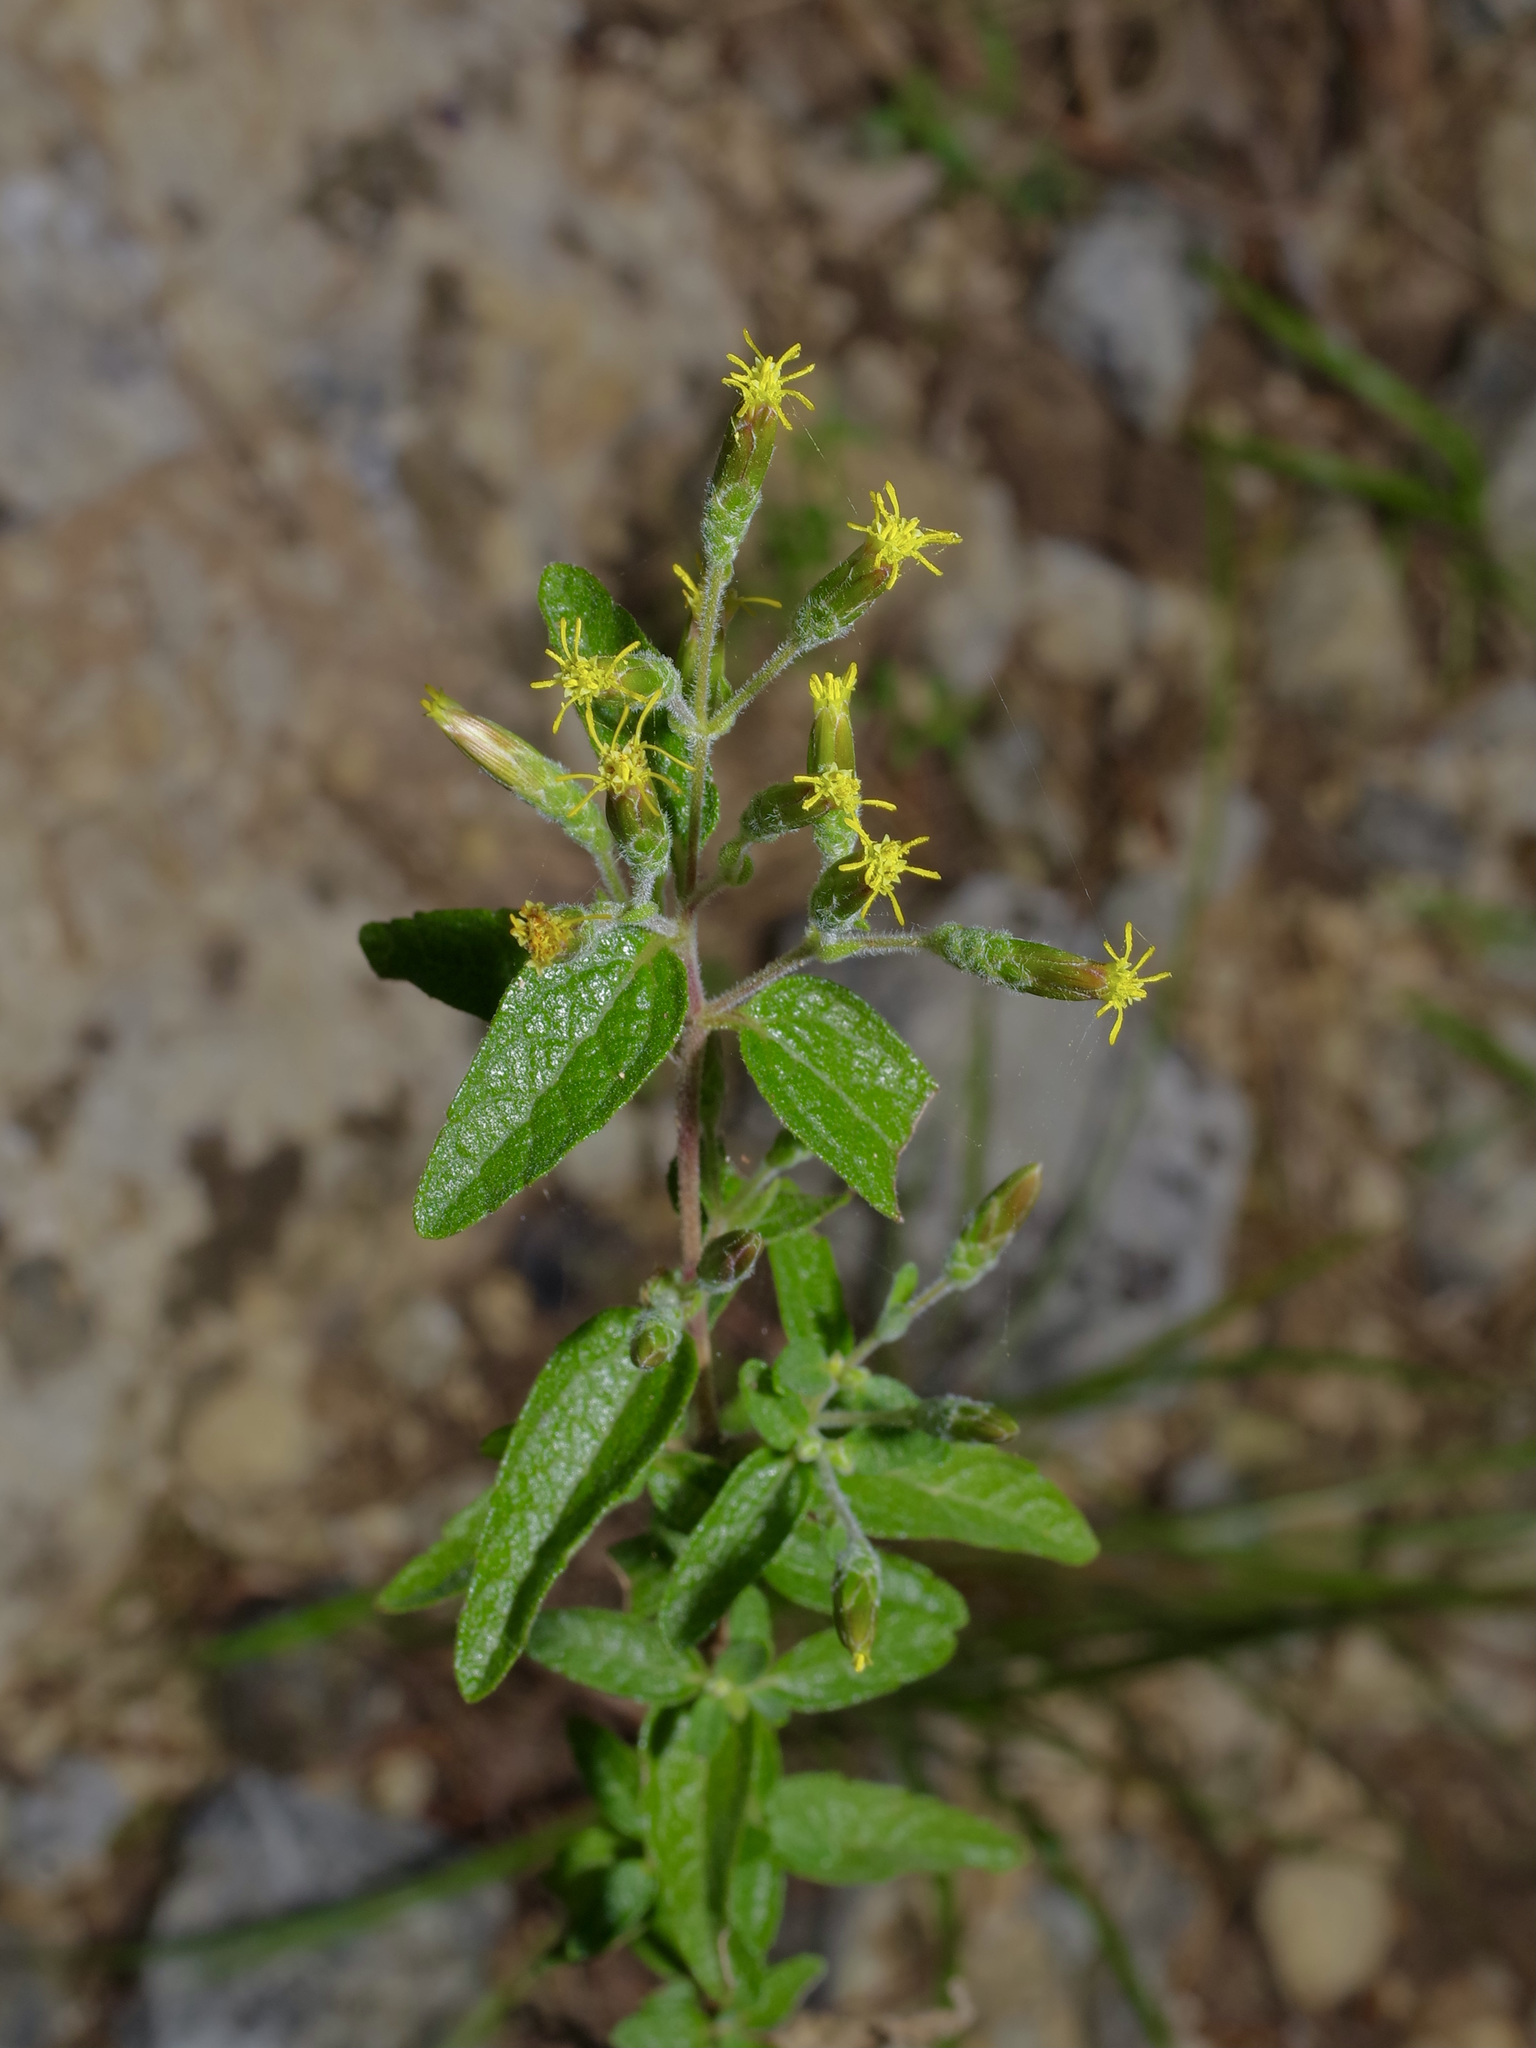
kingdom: Plantae
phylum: Tracheophyta
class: Magnoliopsida
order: Asterales
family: Asteraceae
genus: Brickellia
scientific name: Brickellia cylindracea
